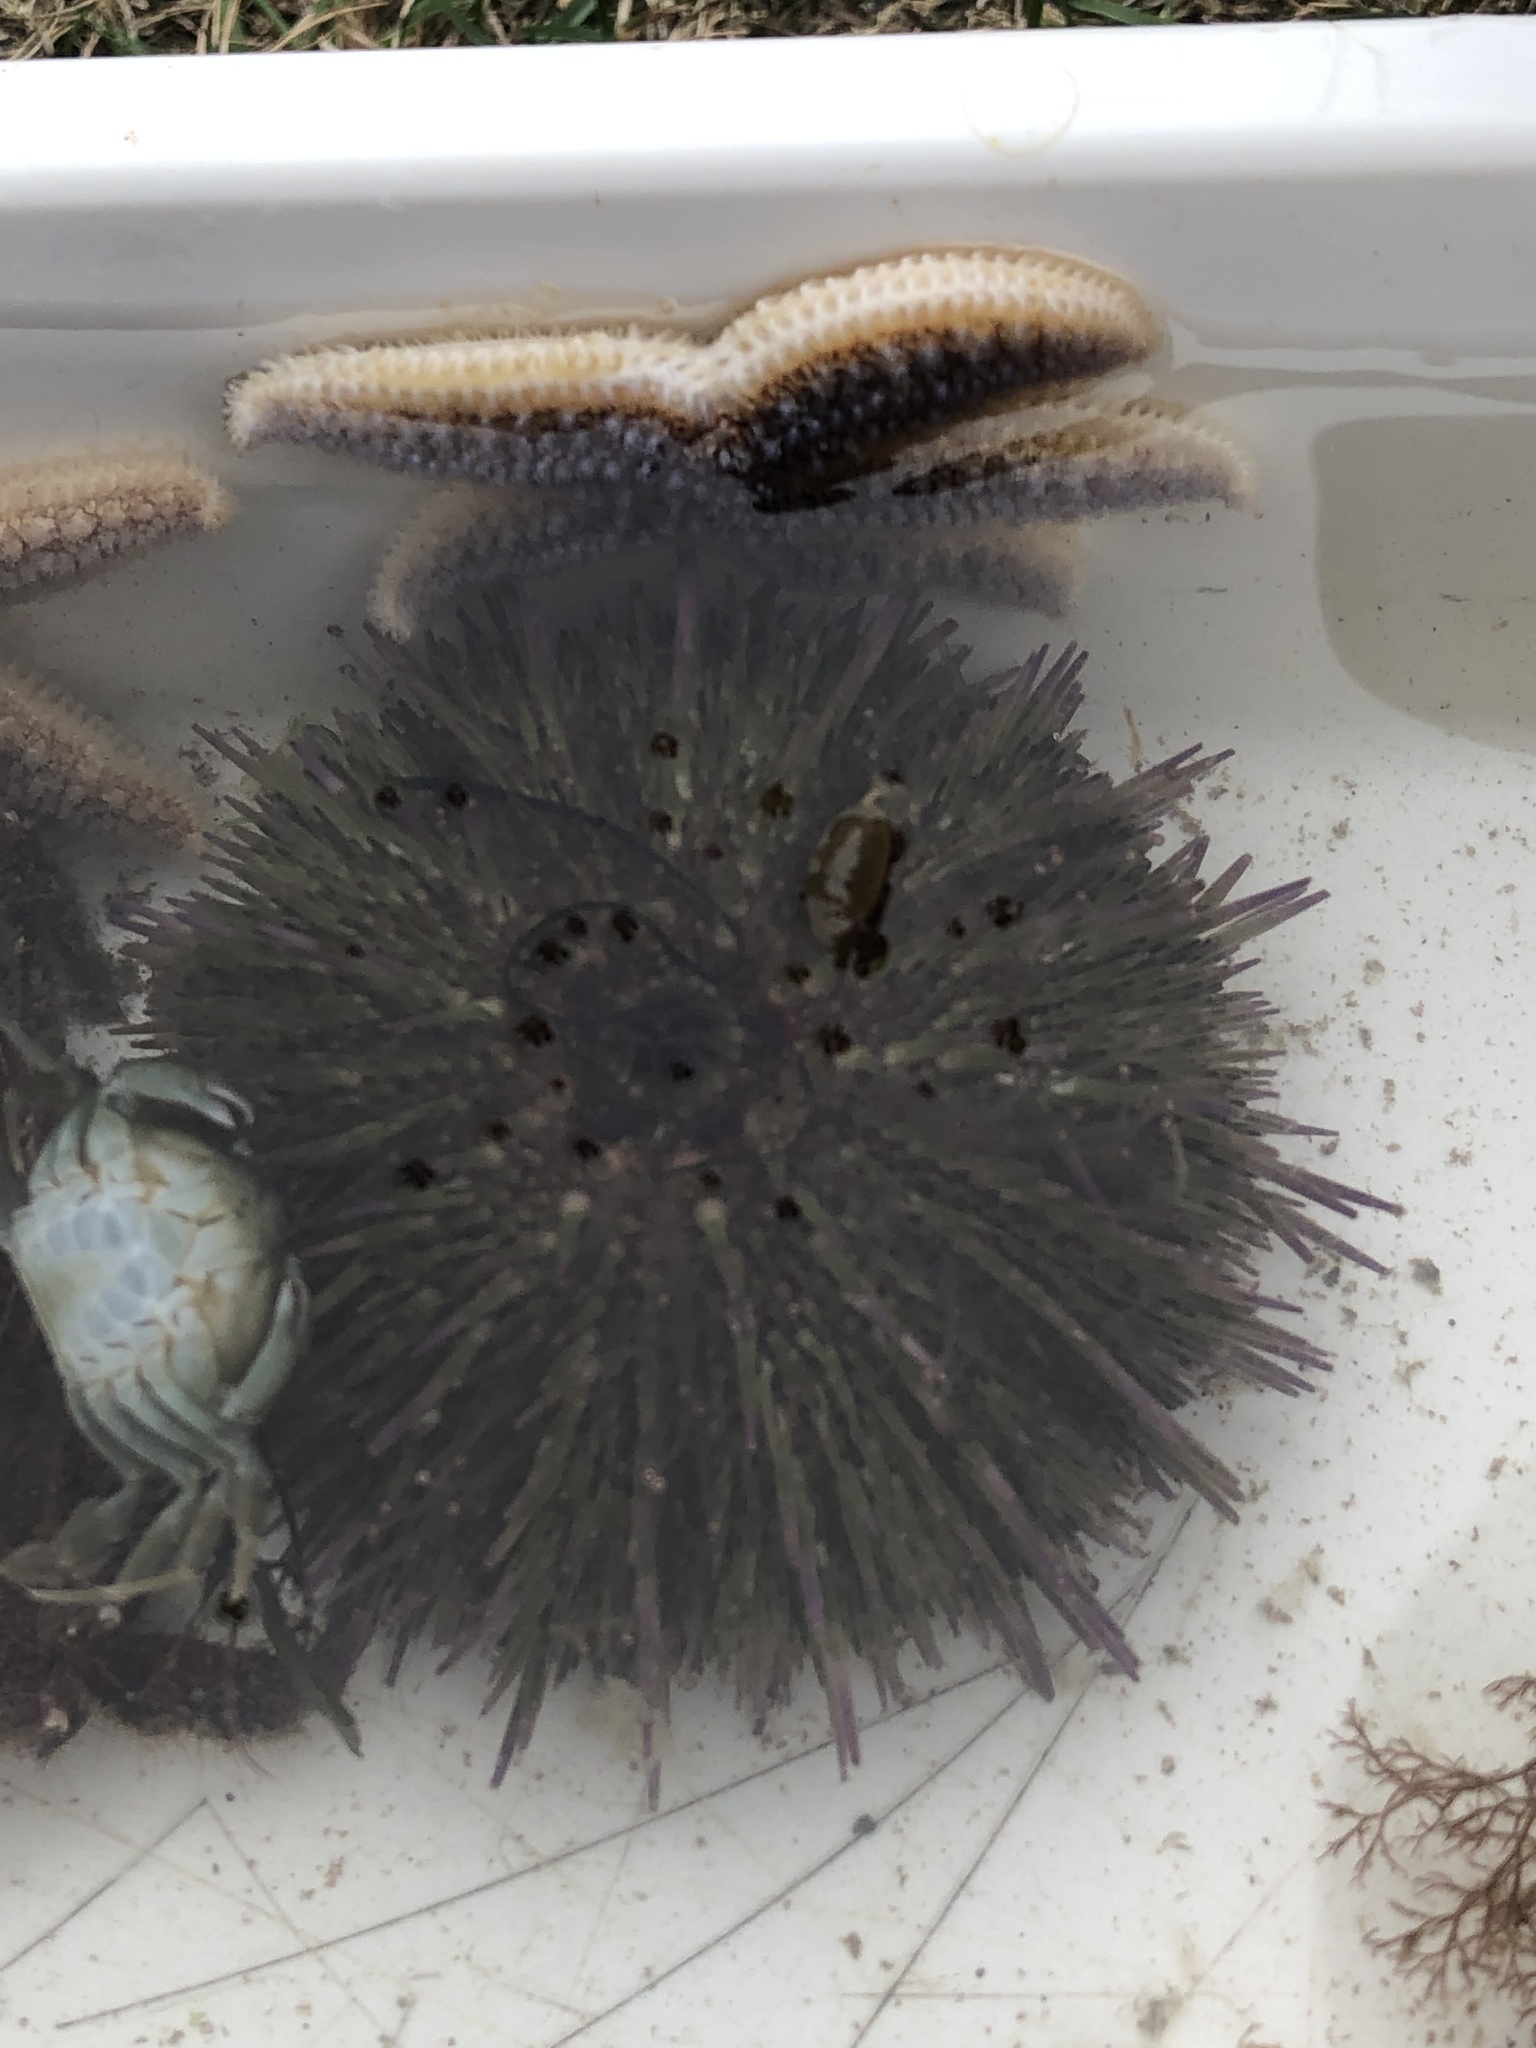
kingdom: Animalia
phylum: Echinodermata
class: Echinoidea
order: Camarodonta
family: Strongylocentrotidae
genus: Strongylocentrotus
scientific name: Strongylocentrotus droebachiensis
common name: Northern sea urchin
